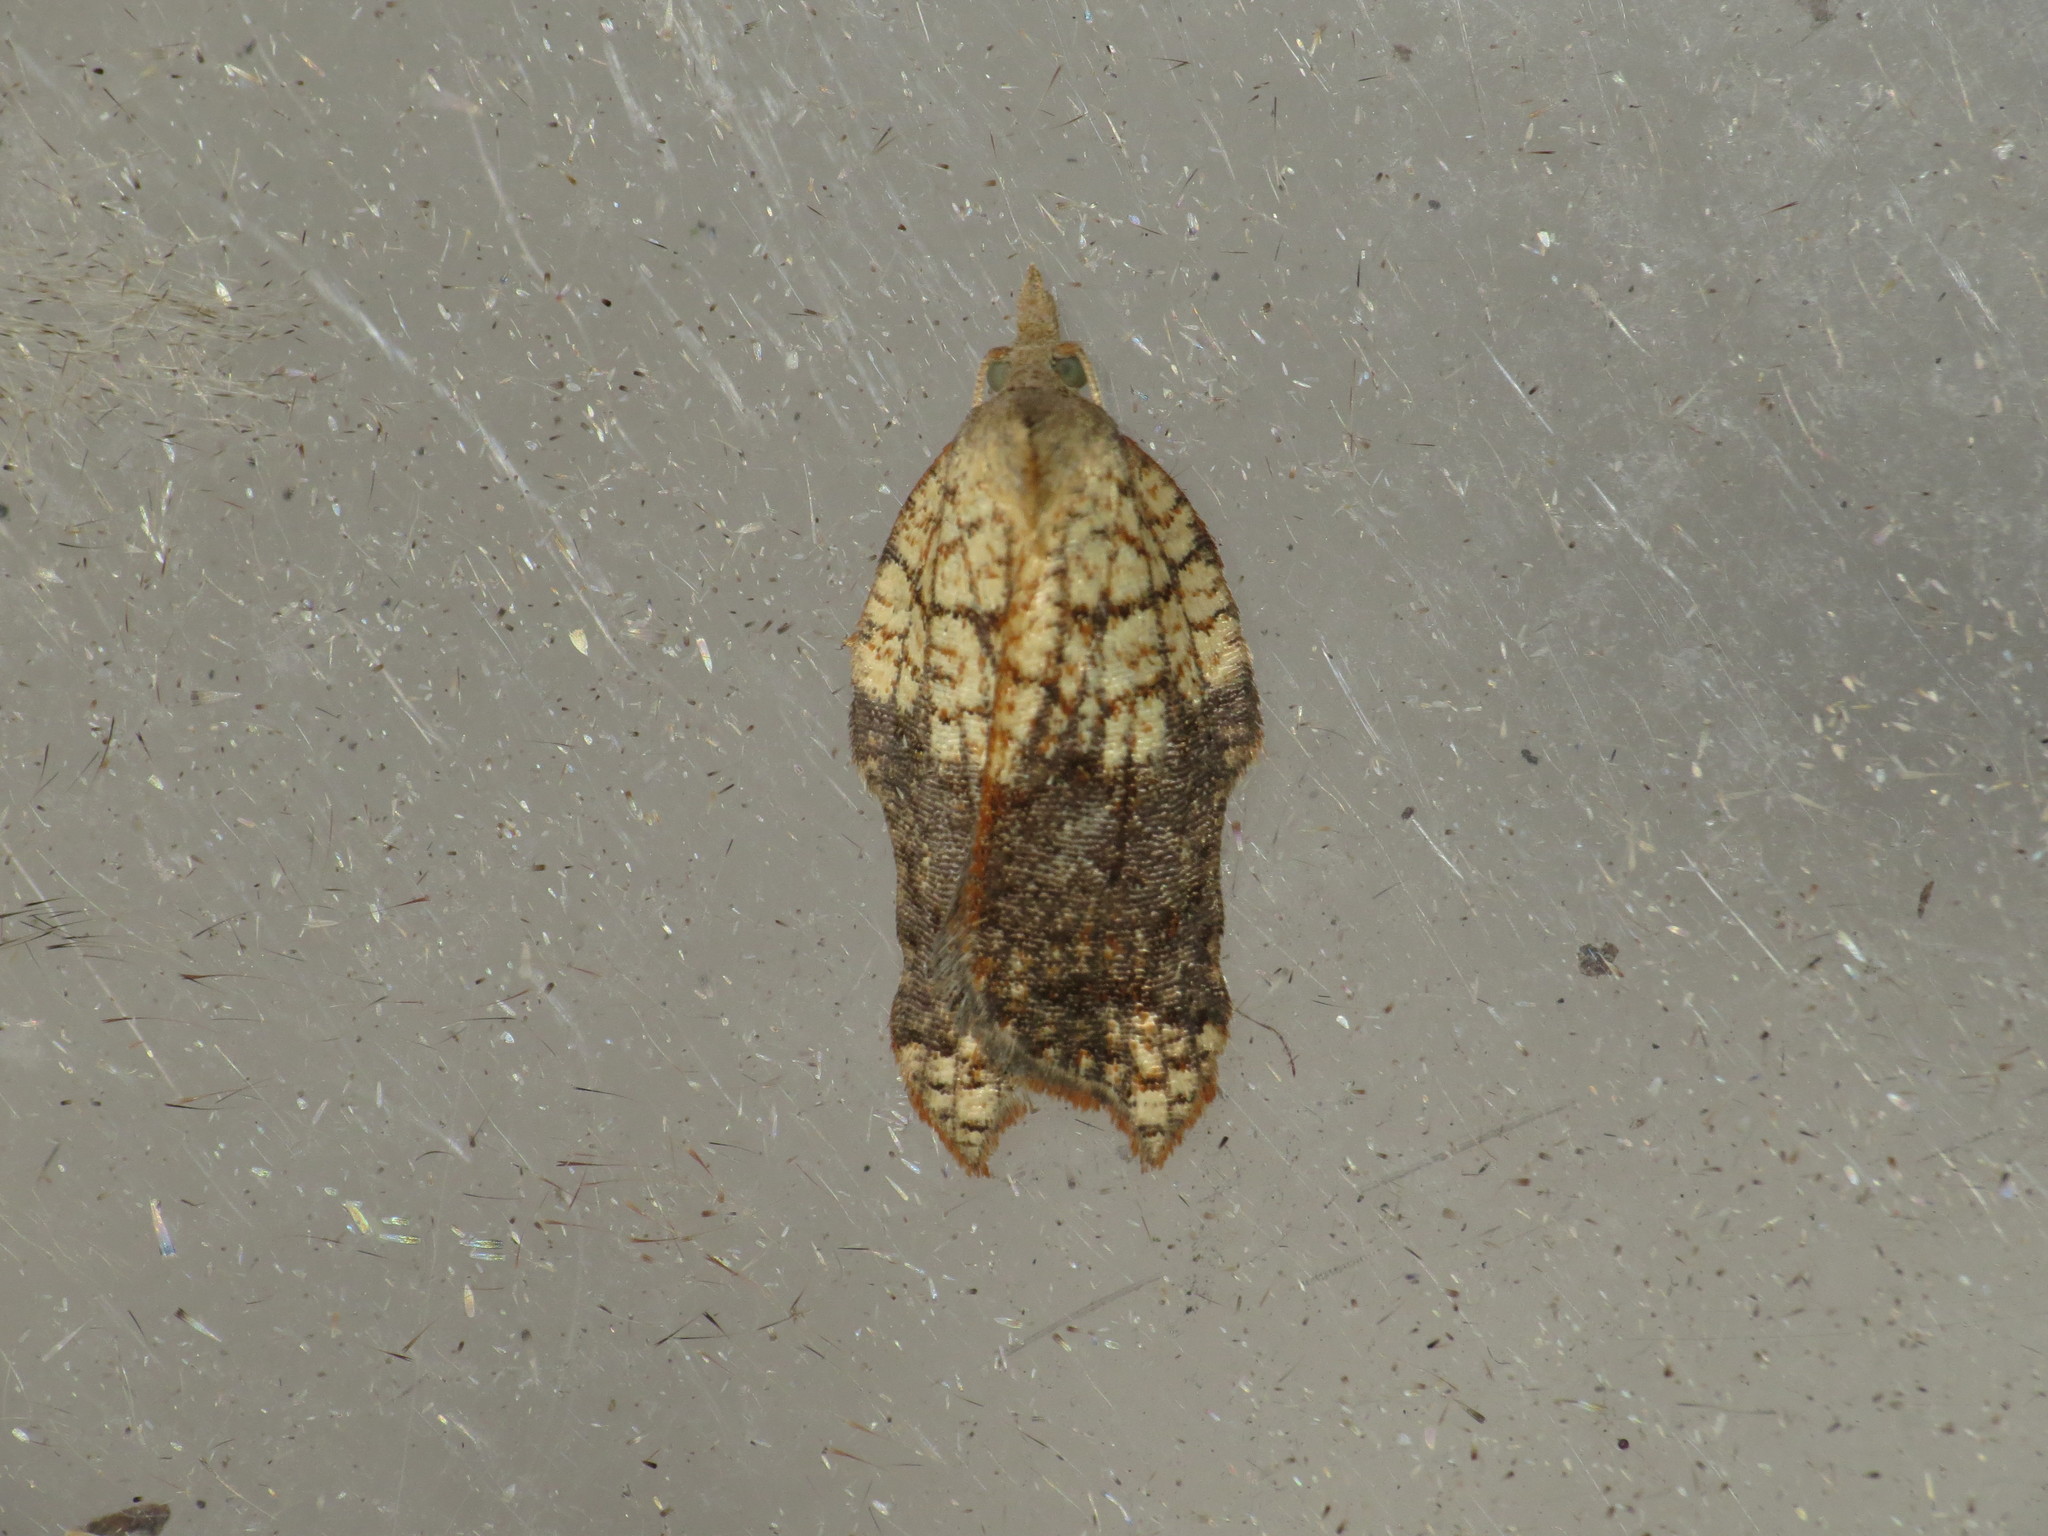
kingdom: Animalia
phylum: Arthropoda
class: Insecta
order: Lepidoptera
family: Tortricidae
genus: Acleris
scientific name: Acleris emargana
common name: Notch-wing button
